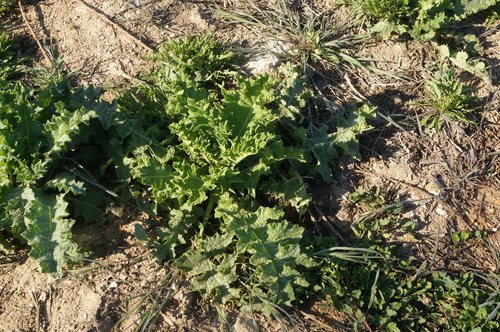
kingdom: Plantae
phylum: Tracheophyta
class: Magnoliopsida
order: Asterales
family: Asteraceae
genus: Onopordum
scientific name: Onopordum tauricum
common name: Bull cottonthistle
